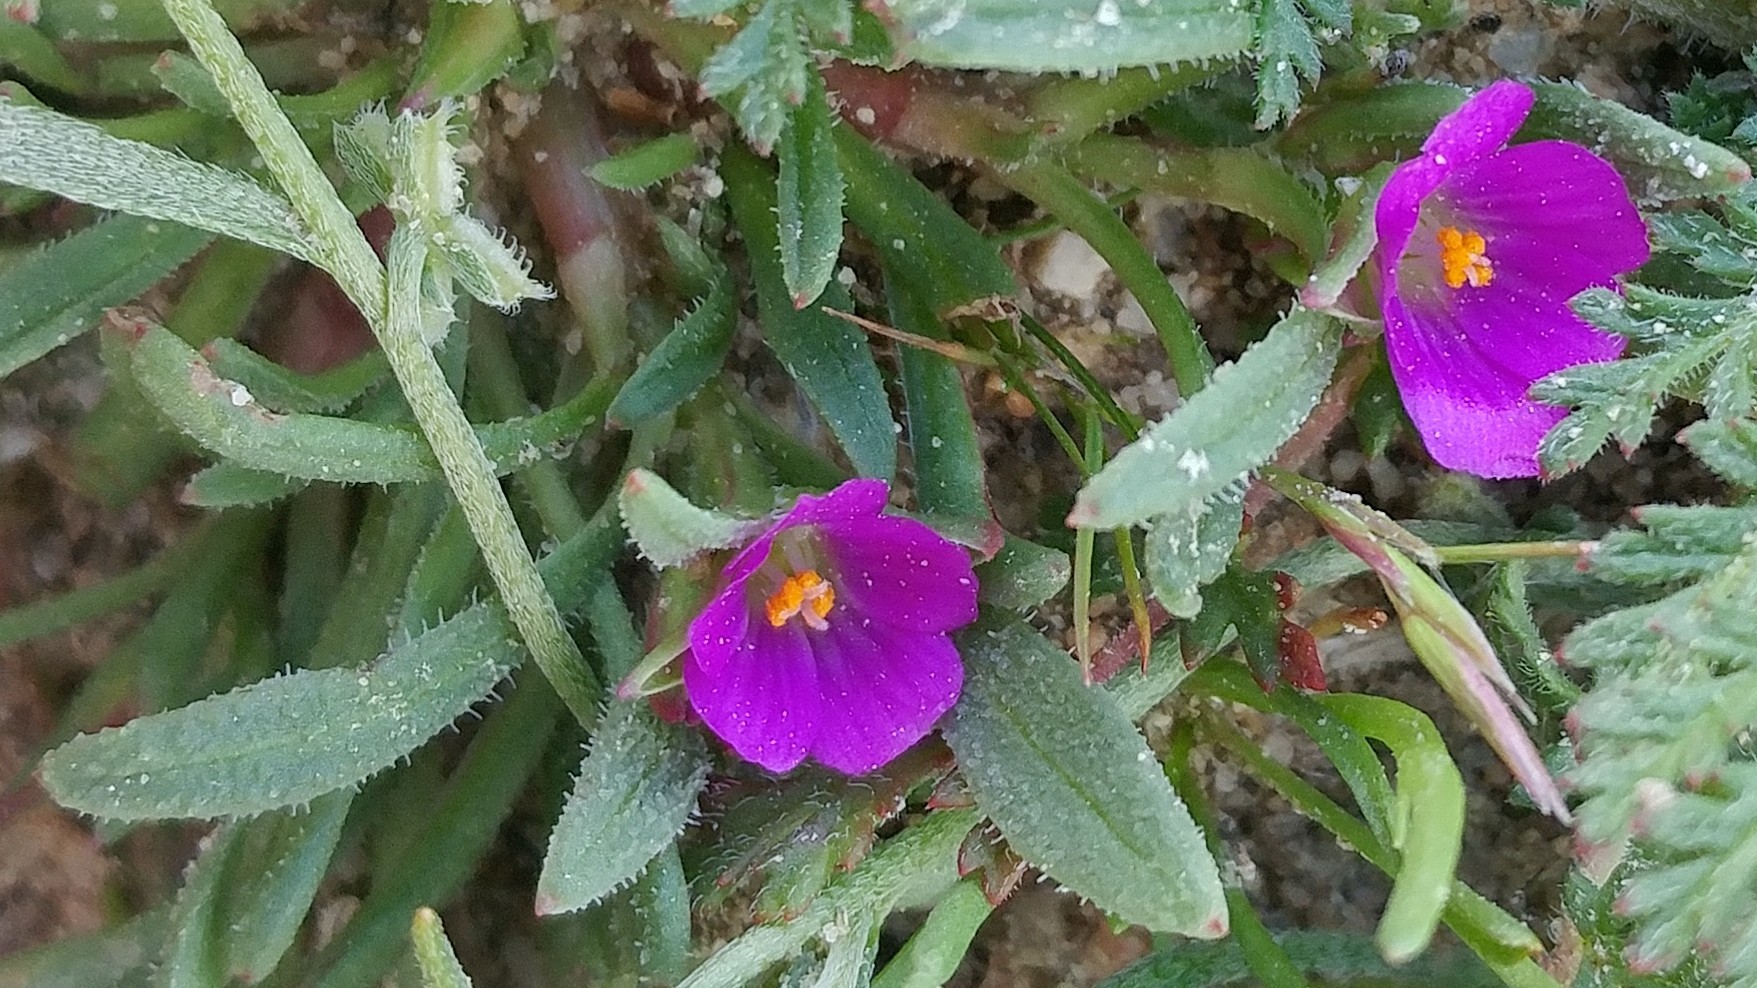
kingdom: Plantae
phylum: Tracheophyta
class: Magnoliopsida
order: Caryophyllales
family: Montiaceae
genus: Calandrinia
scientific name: Calandrinia menziesii
